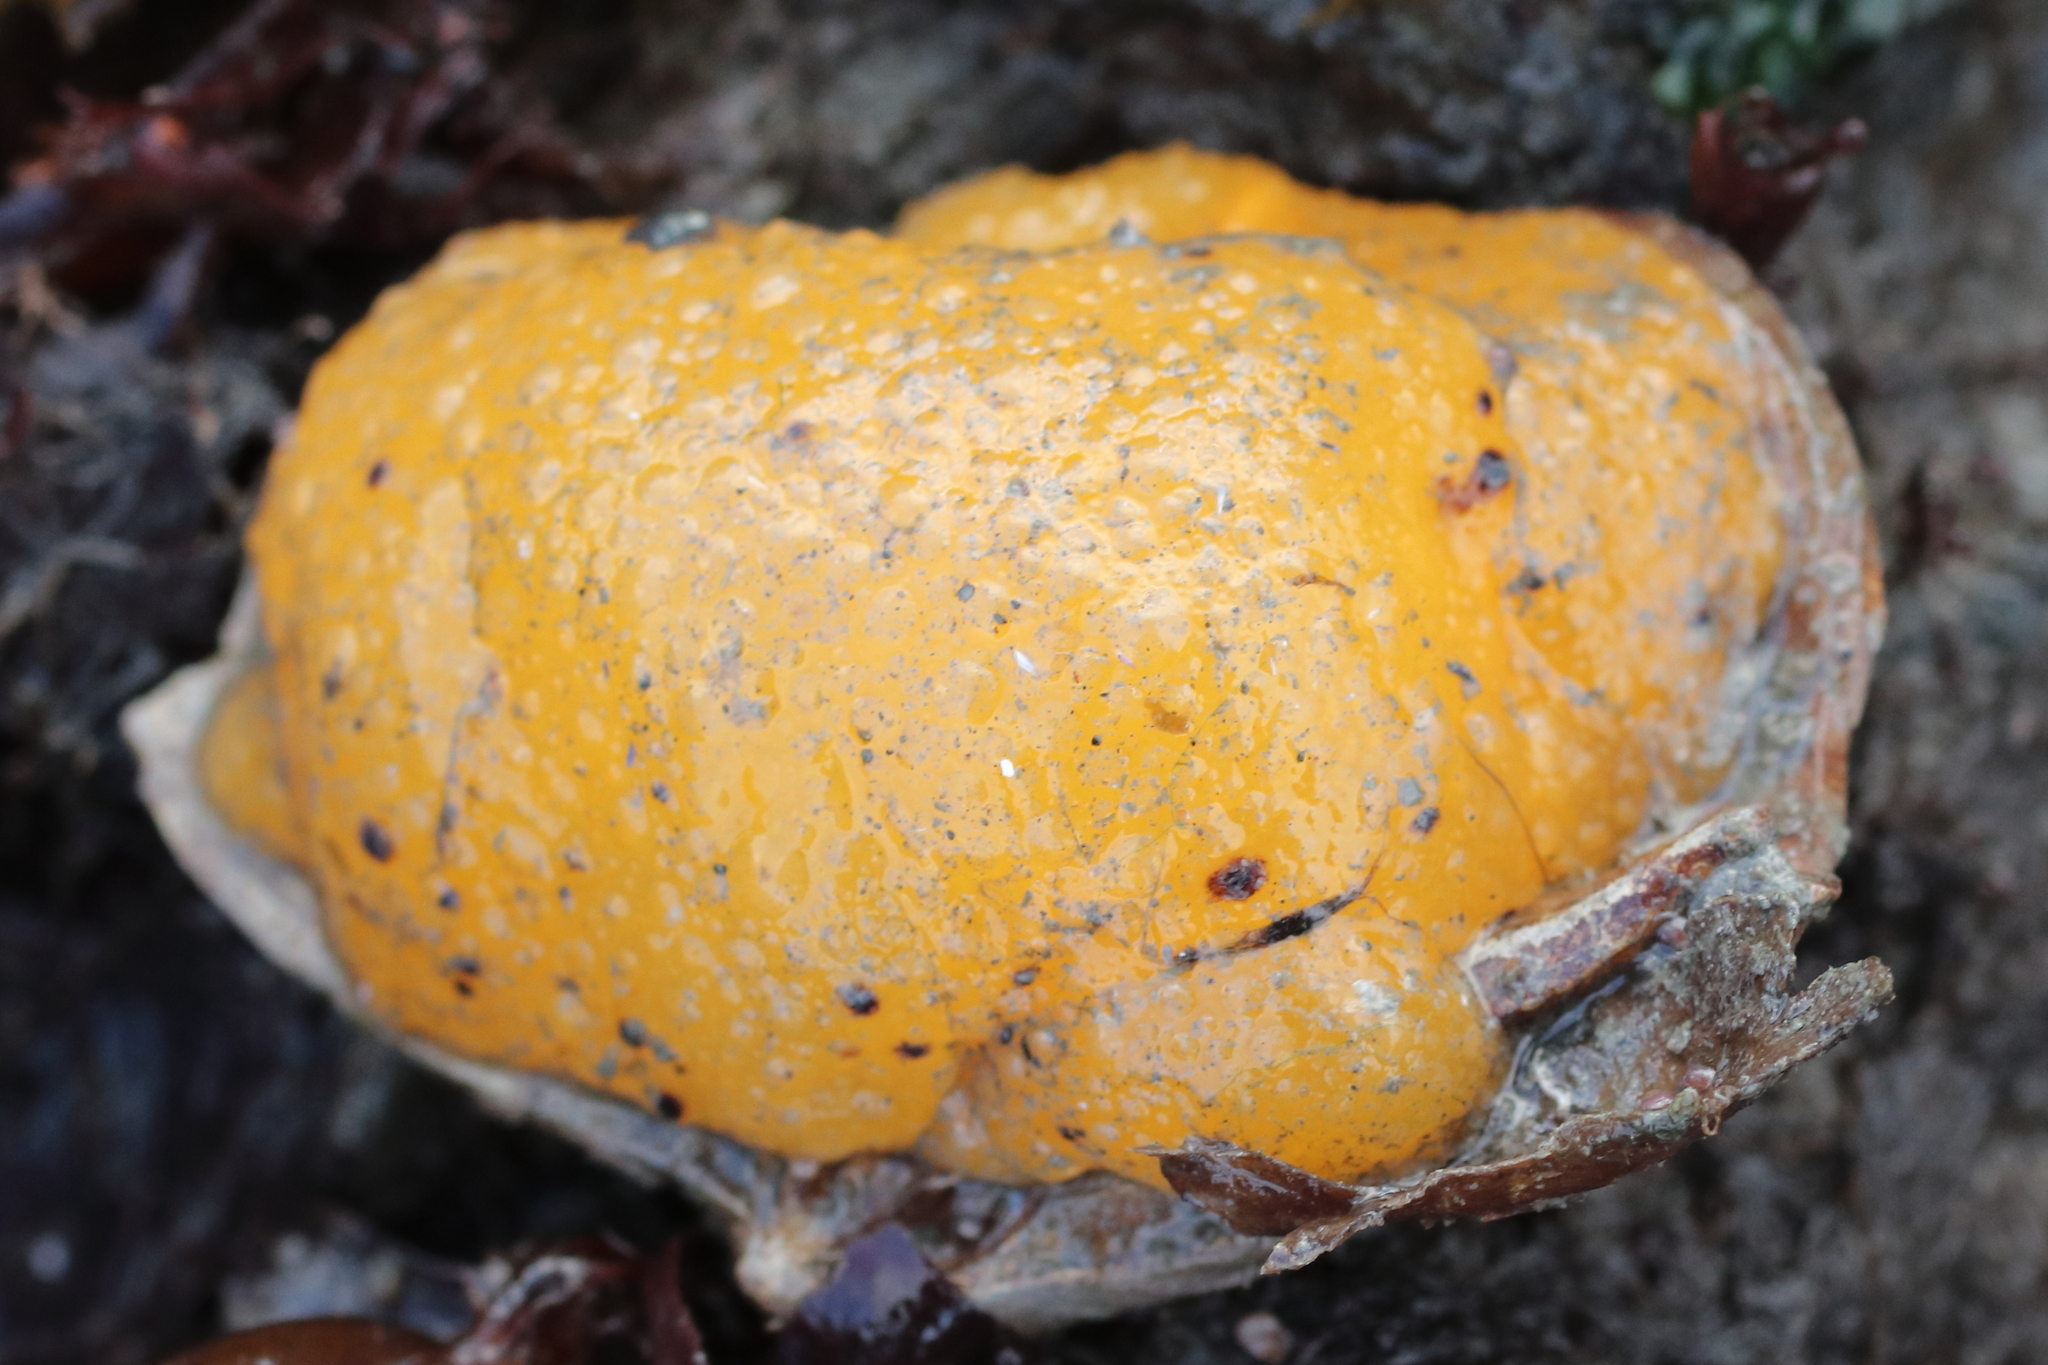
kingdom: Animalia
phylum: Mollusca
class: Gastropoda
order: Nudibranchia
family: Dorididae
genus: Doris
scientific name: Doris montereyensis
